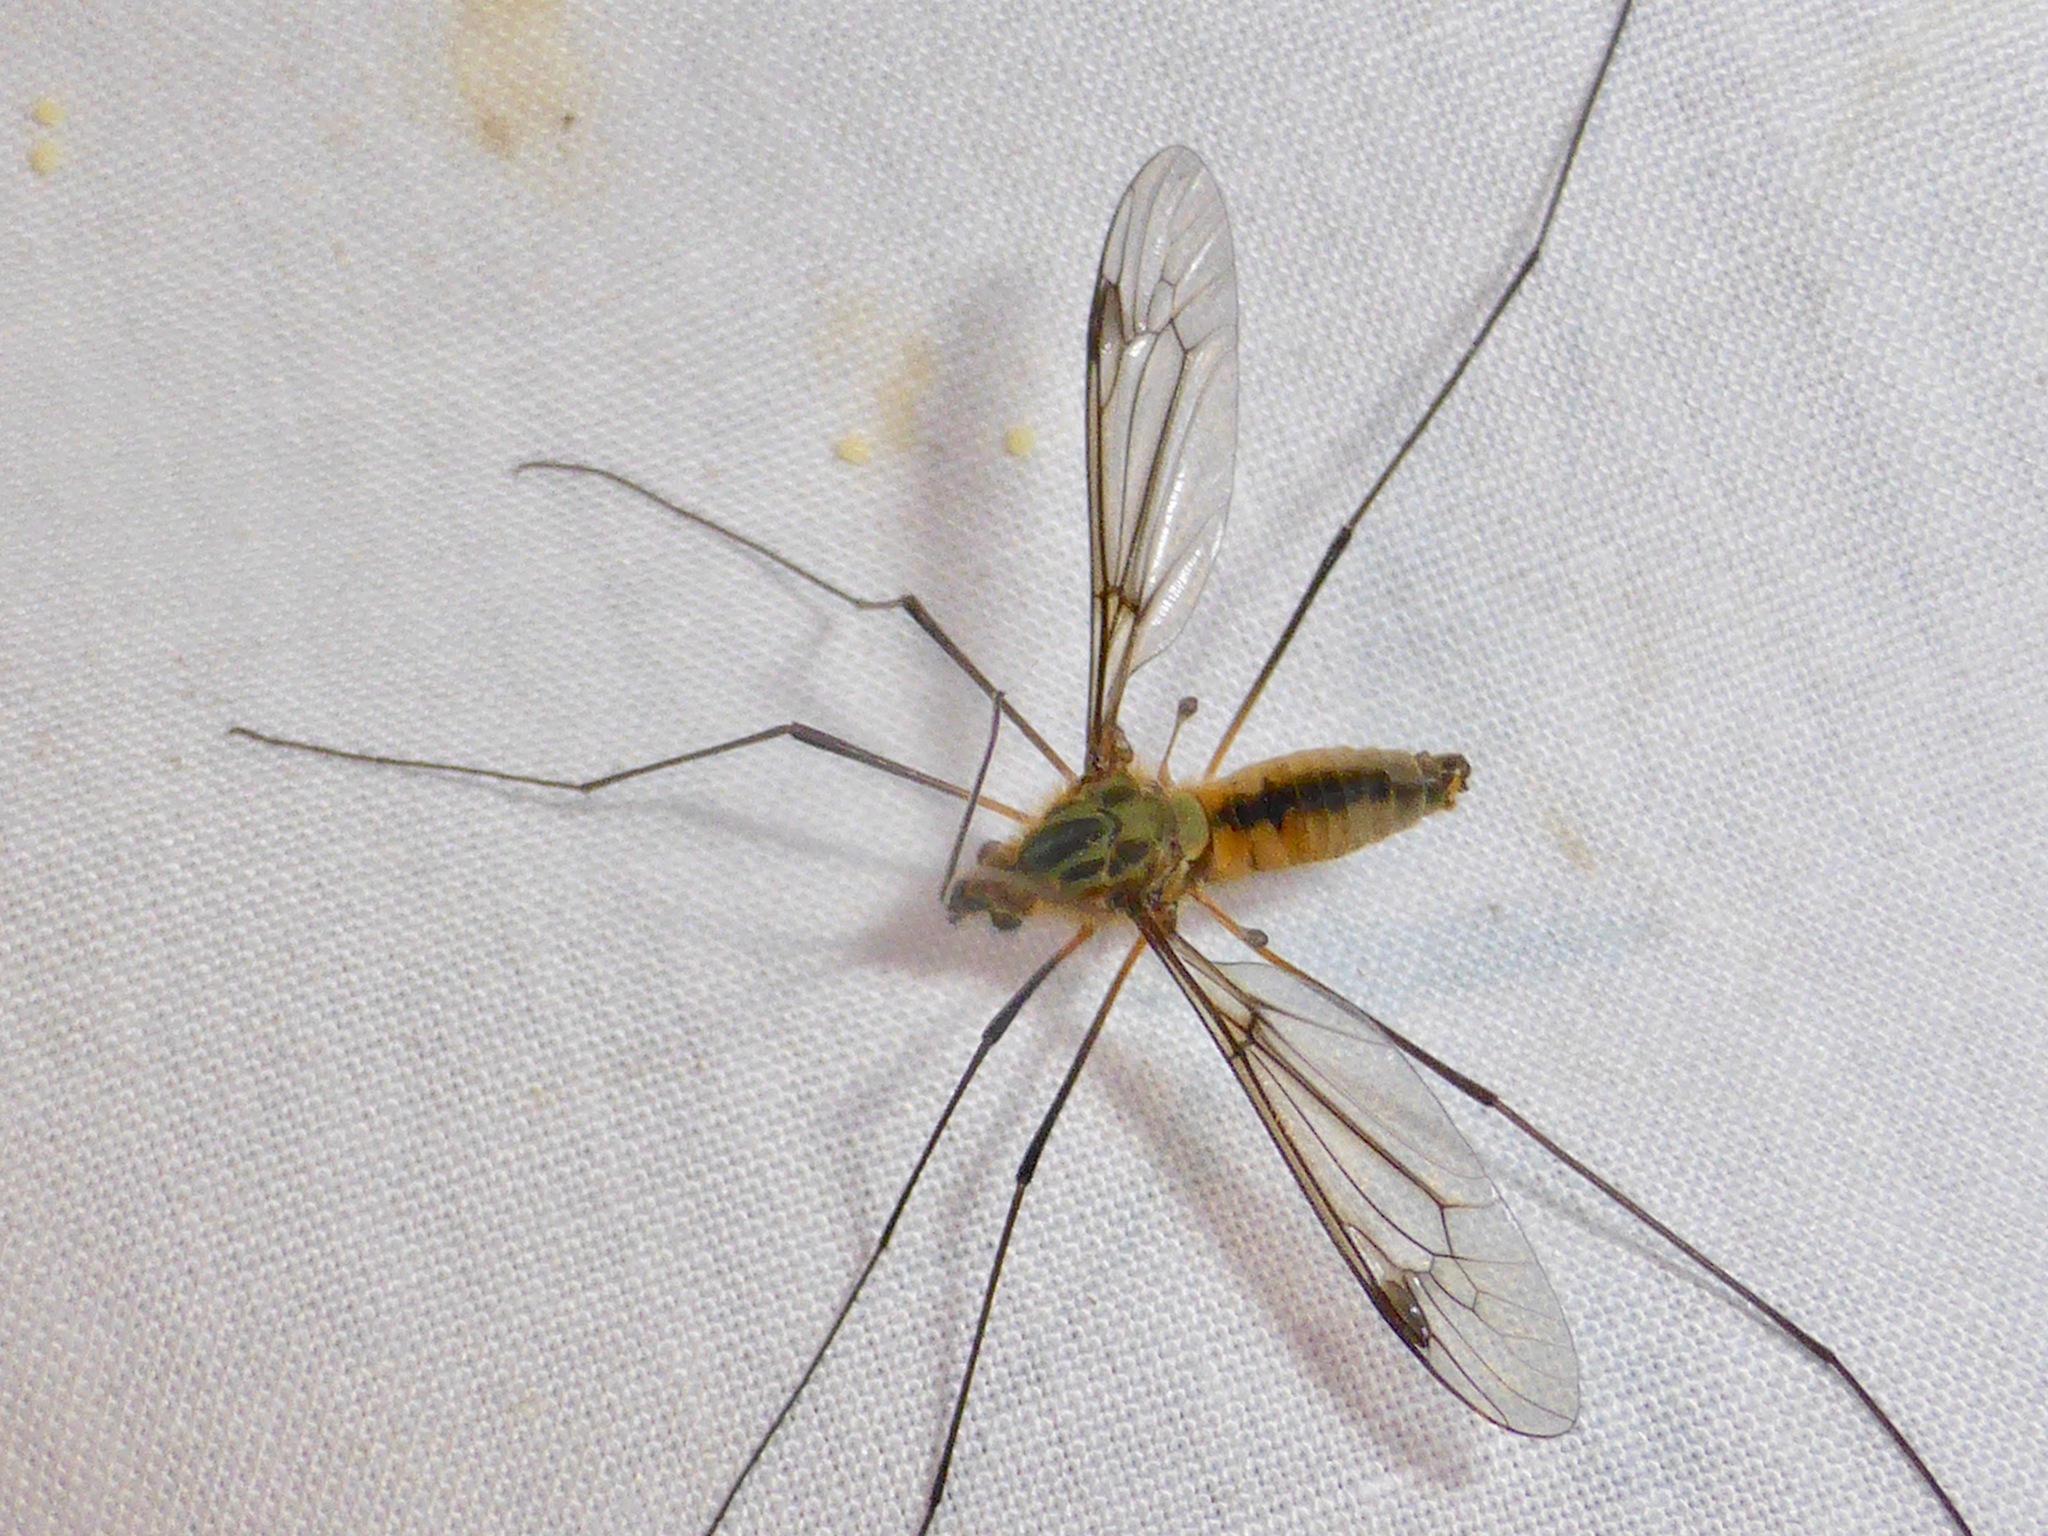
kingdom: Animalia
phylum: Arthropoda
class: Insecta
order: Diptera
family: Tipulidae
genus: Leptotarsus
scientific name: Leptotarsus vulpinus
